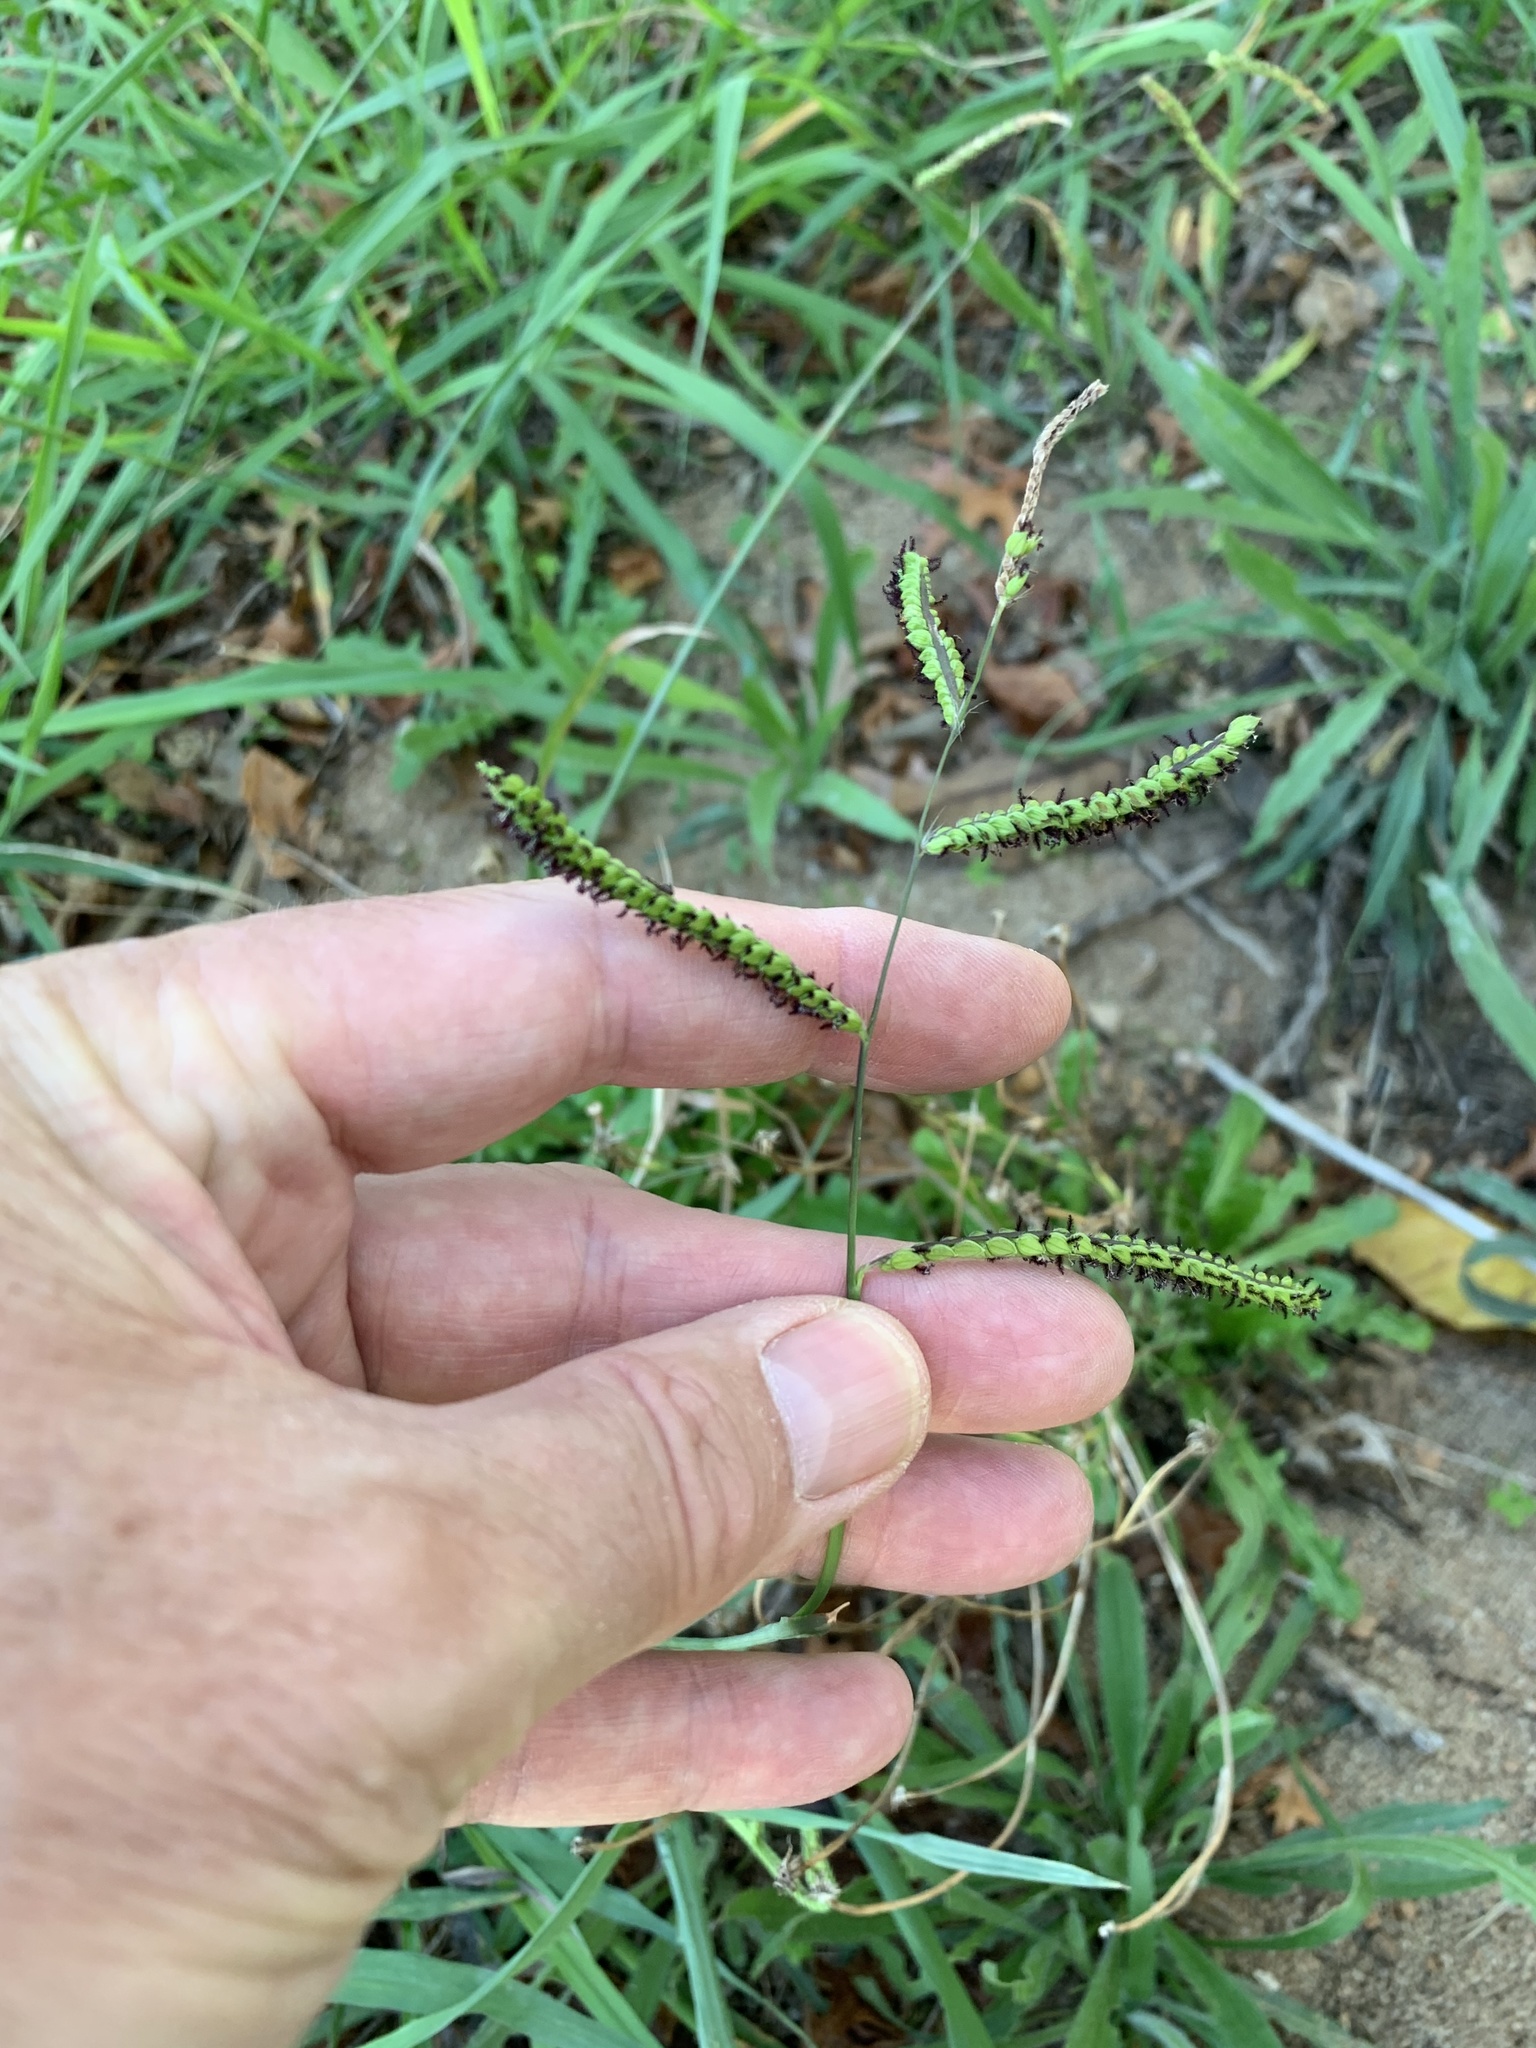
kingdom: Plantae
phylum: Tracheophyta
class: Liliopsida
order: Poales
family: Poaceae
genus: Paspalum
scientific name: Paspalum dilatatum
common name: Dallisgrass
